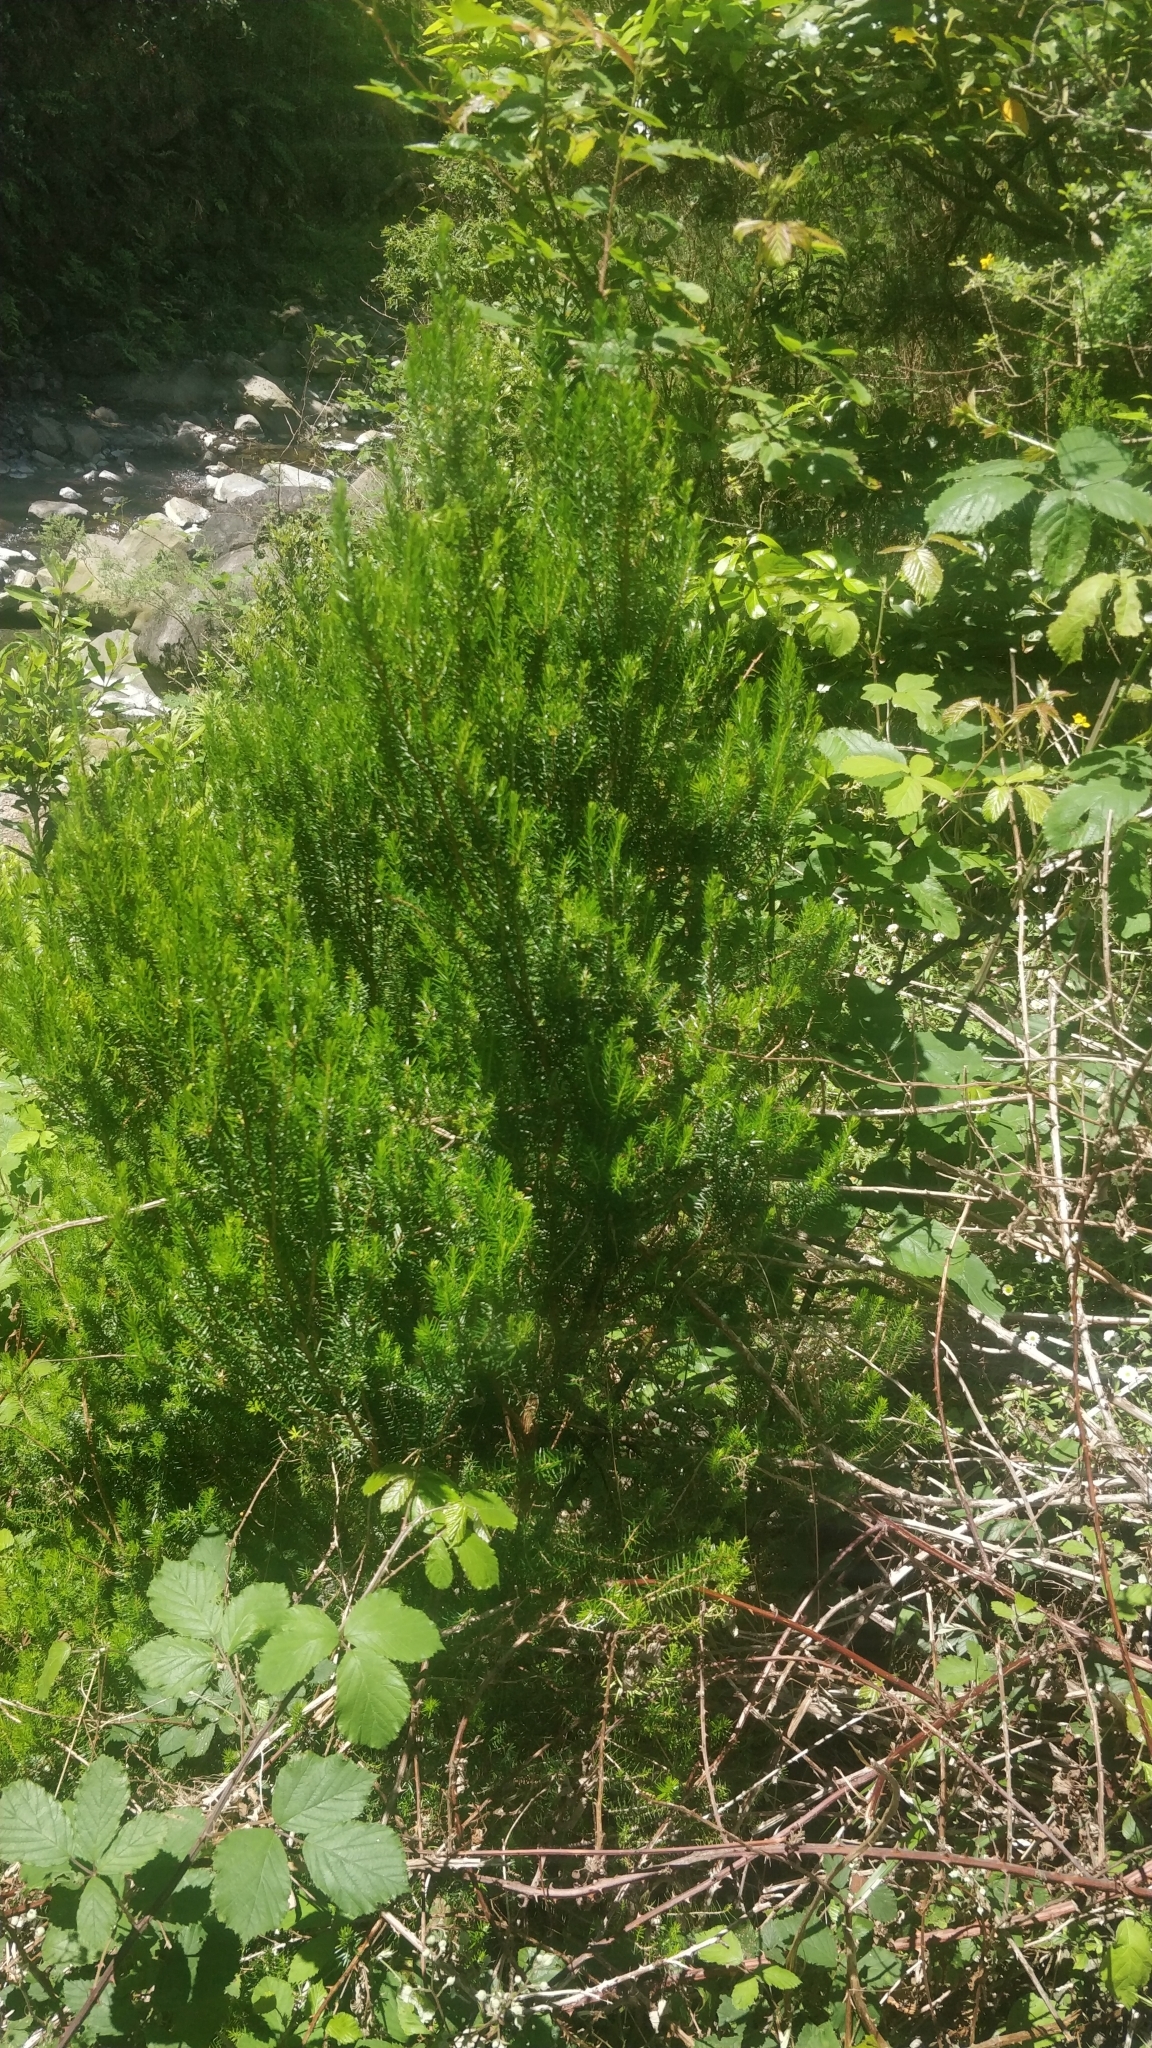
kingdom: Plantae
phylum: Tracheophyta
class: Magnoliopsida
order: Ericales
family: Ericaceae
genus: Erica
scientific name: Erica platycodon
